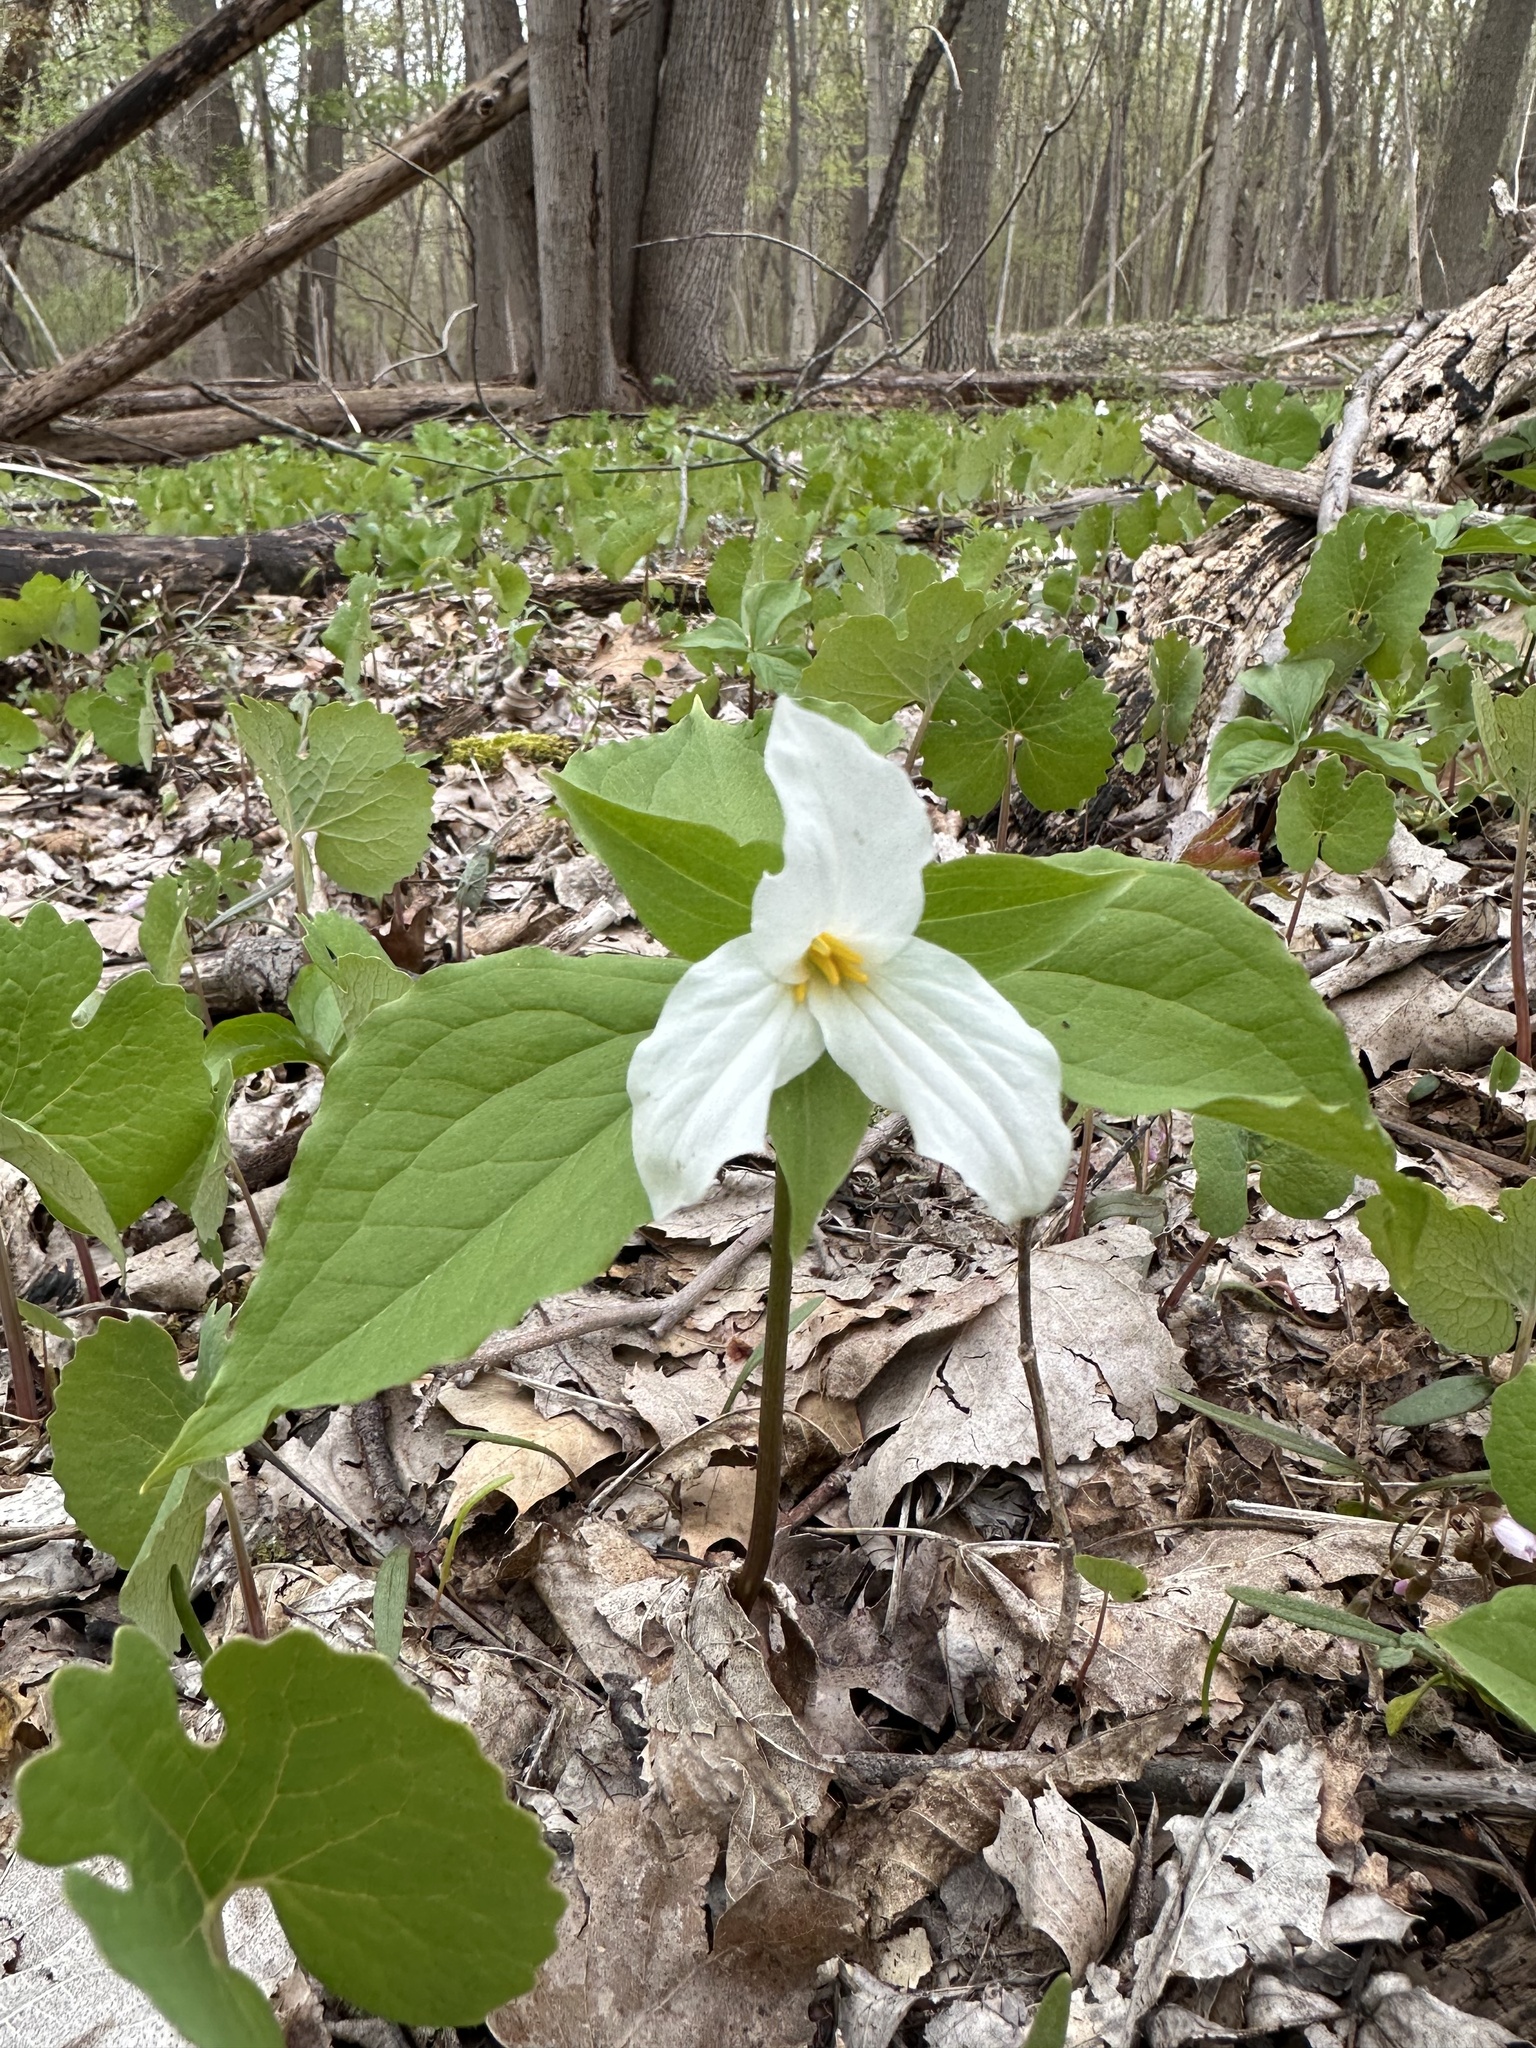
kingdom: Plantae
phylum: Tracheophyta
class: Liliopsida
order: Liliales
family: Melanthiaceae
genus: Trillium
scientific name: Trillium grandiflorum
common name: Great white trillium
